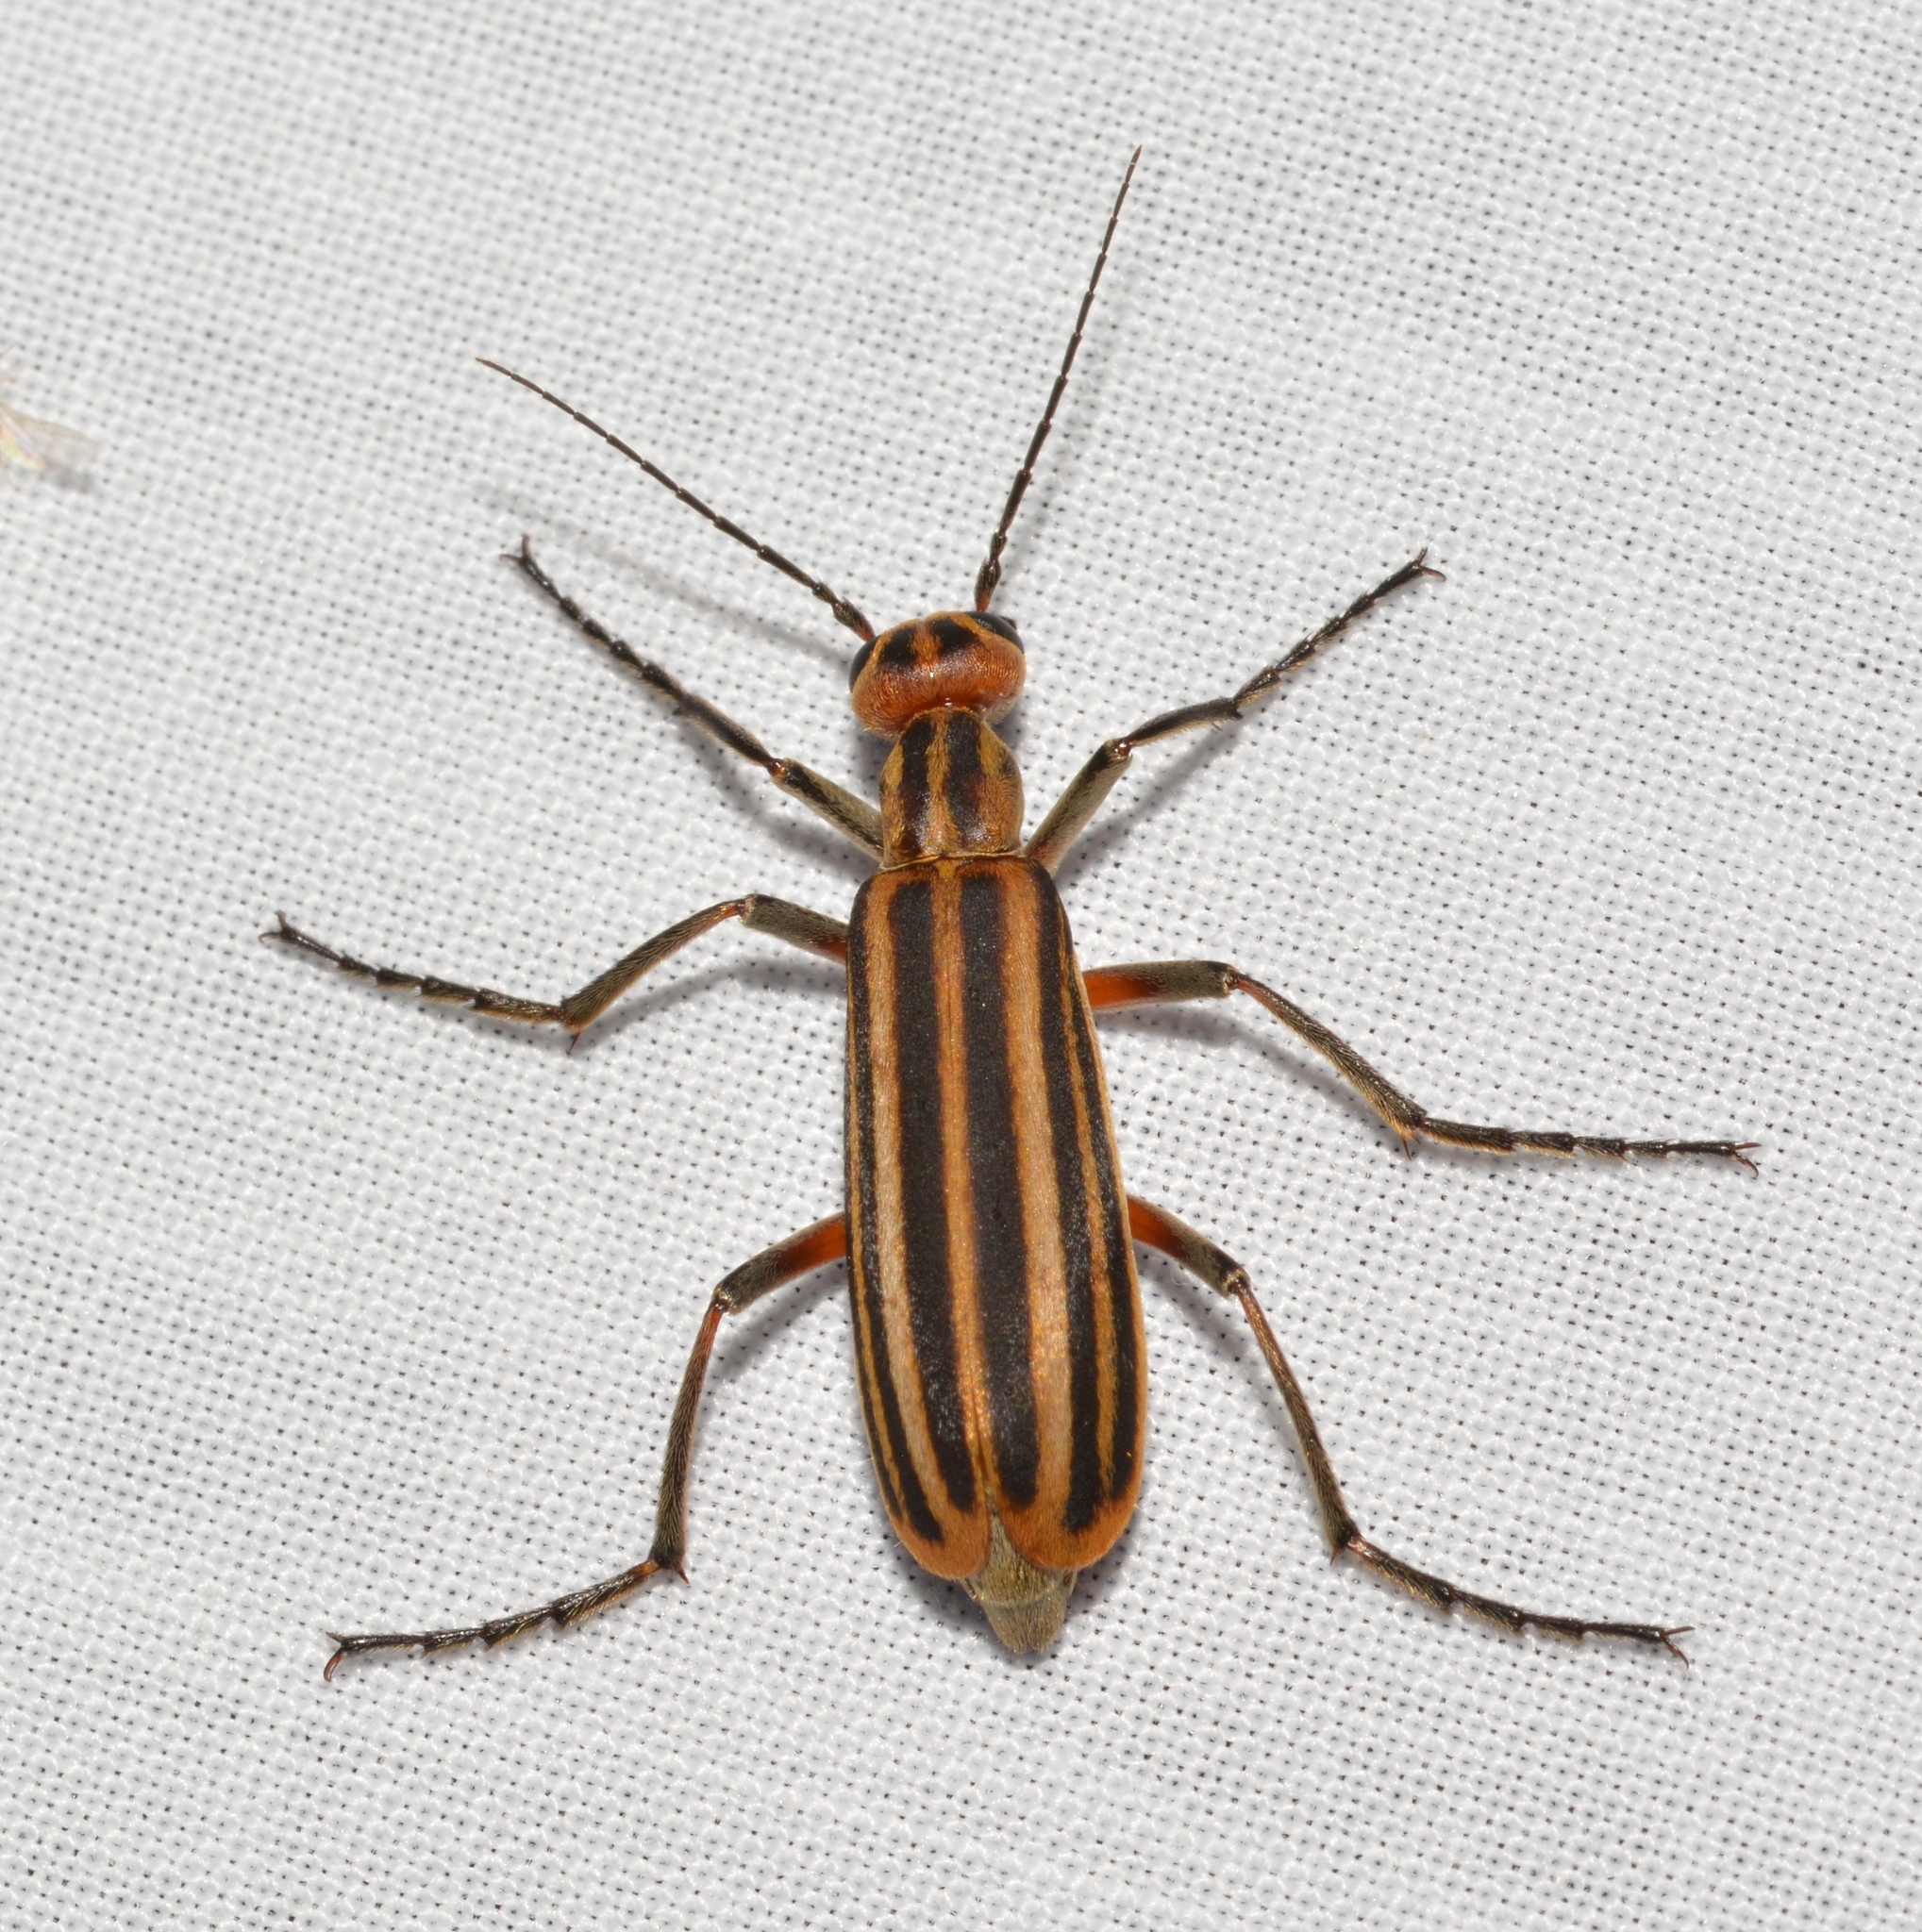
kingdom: Animalia
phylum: Arthropoda
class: Insecta
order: Coleoptera
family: Meloidae
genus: Epicauta
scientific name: Epicauta vittata
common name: Old-fashioned potato beetle
